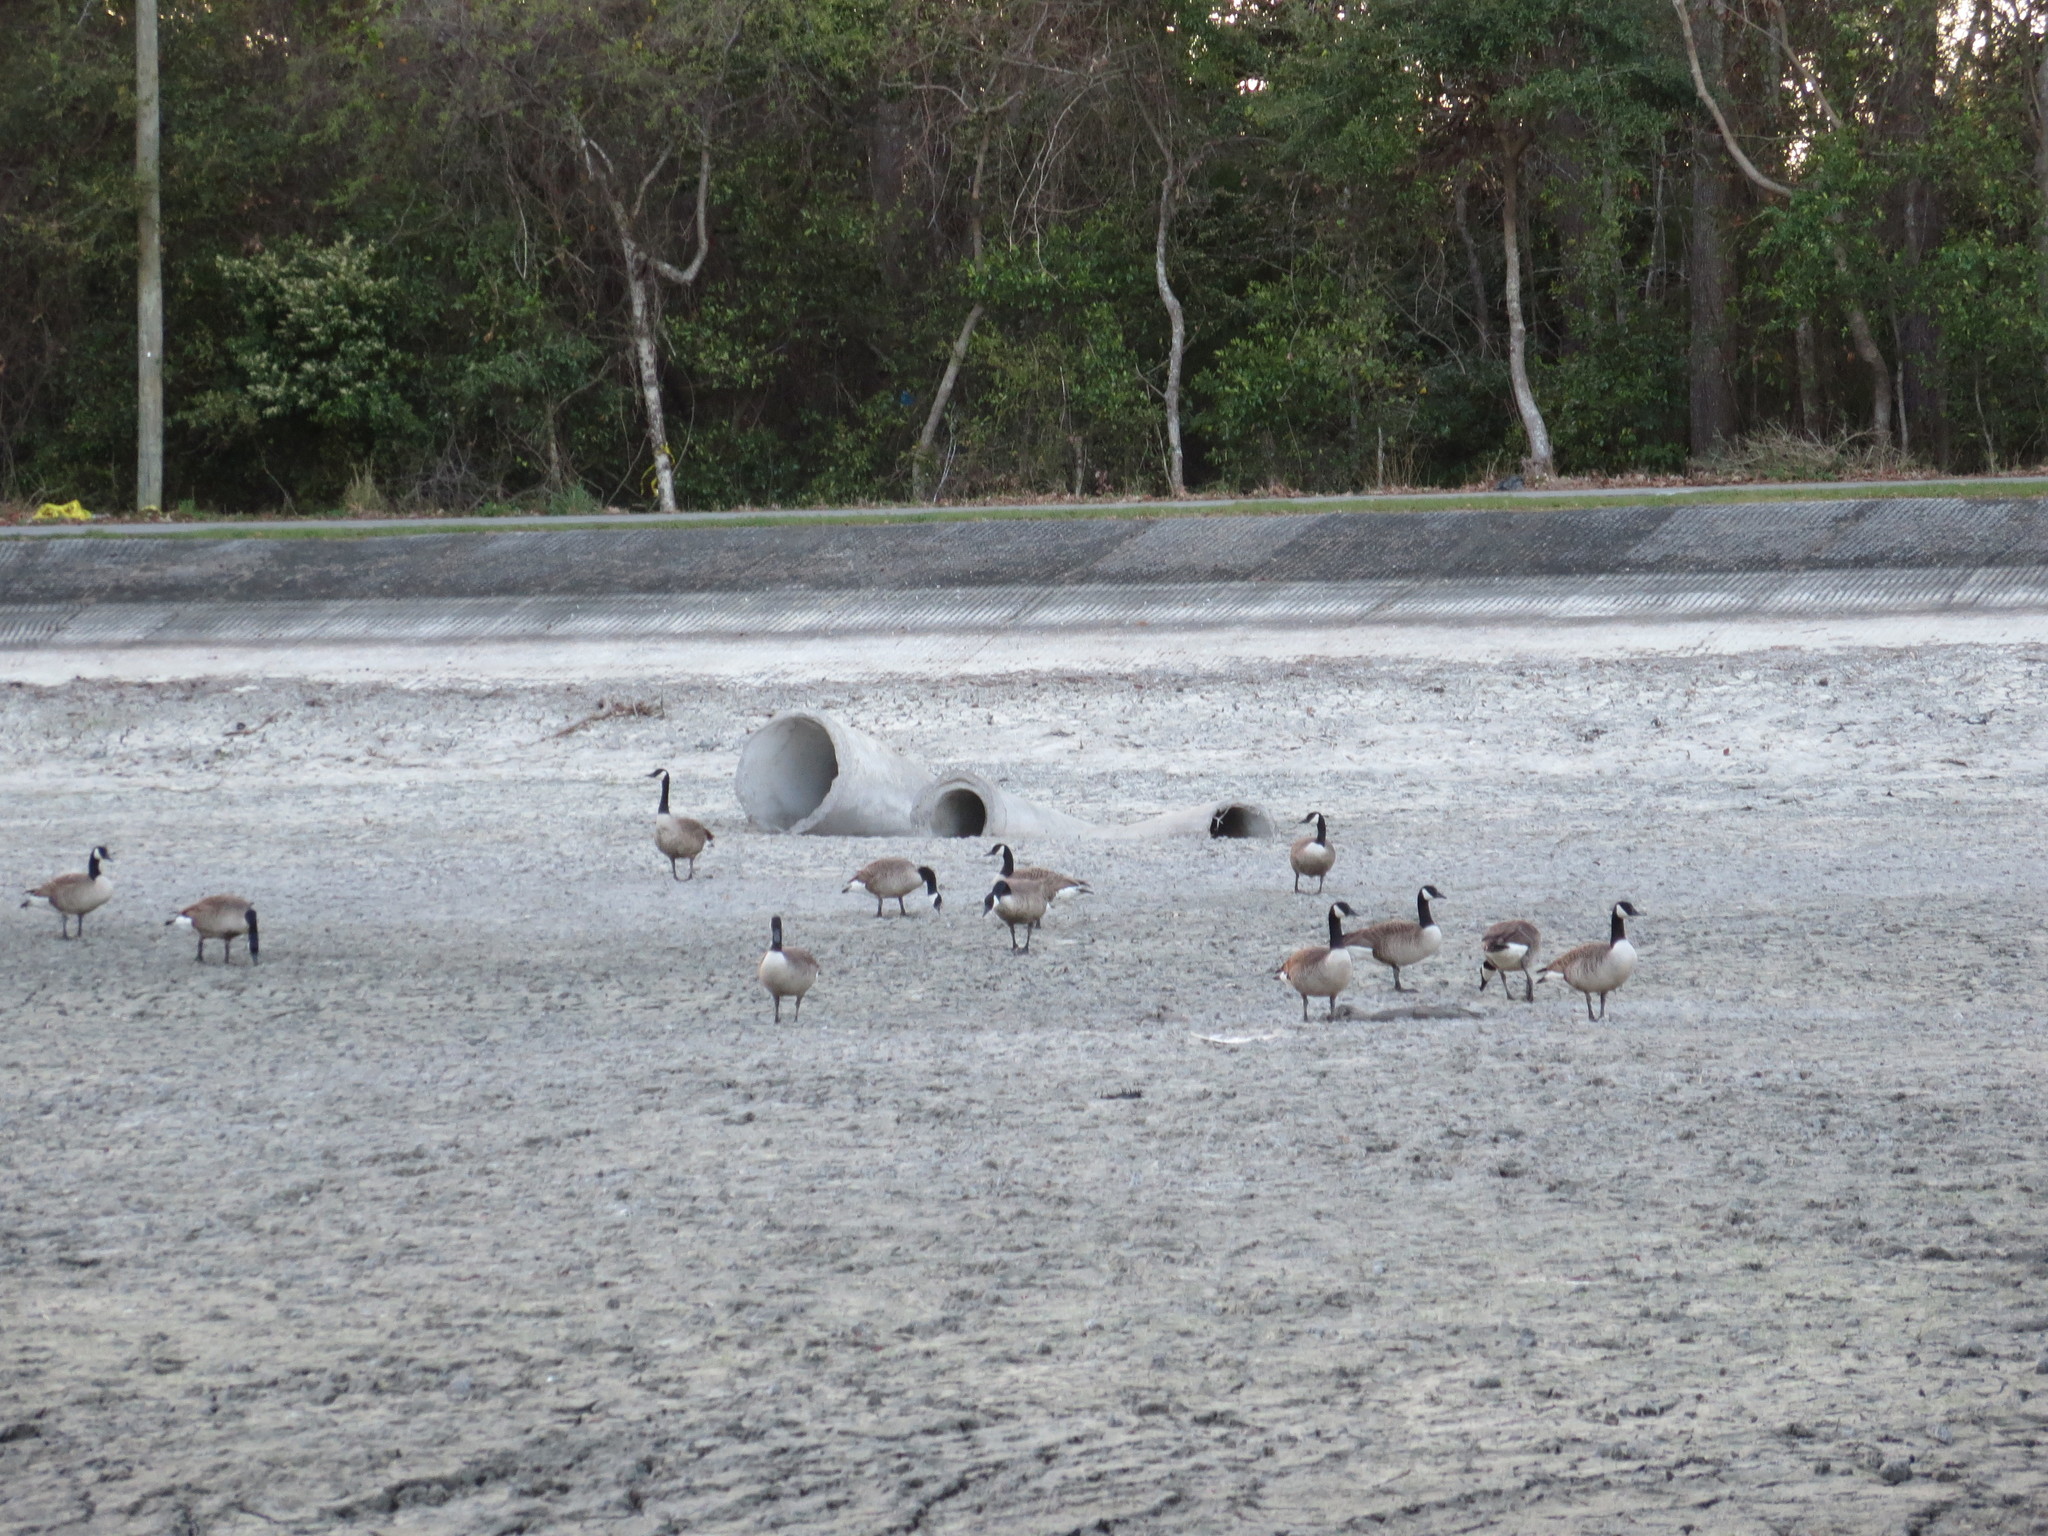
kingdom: Animalia
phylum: Chordata
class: Aves
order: Anseriformes
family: Anatidae
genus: Branta
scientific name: Branta canadensis
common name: Canada goose
